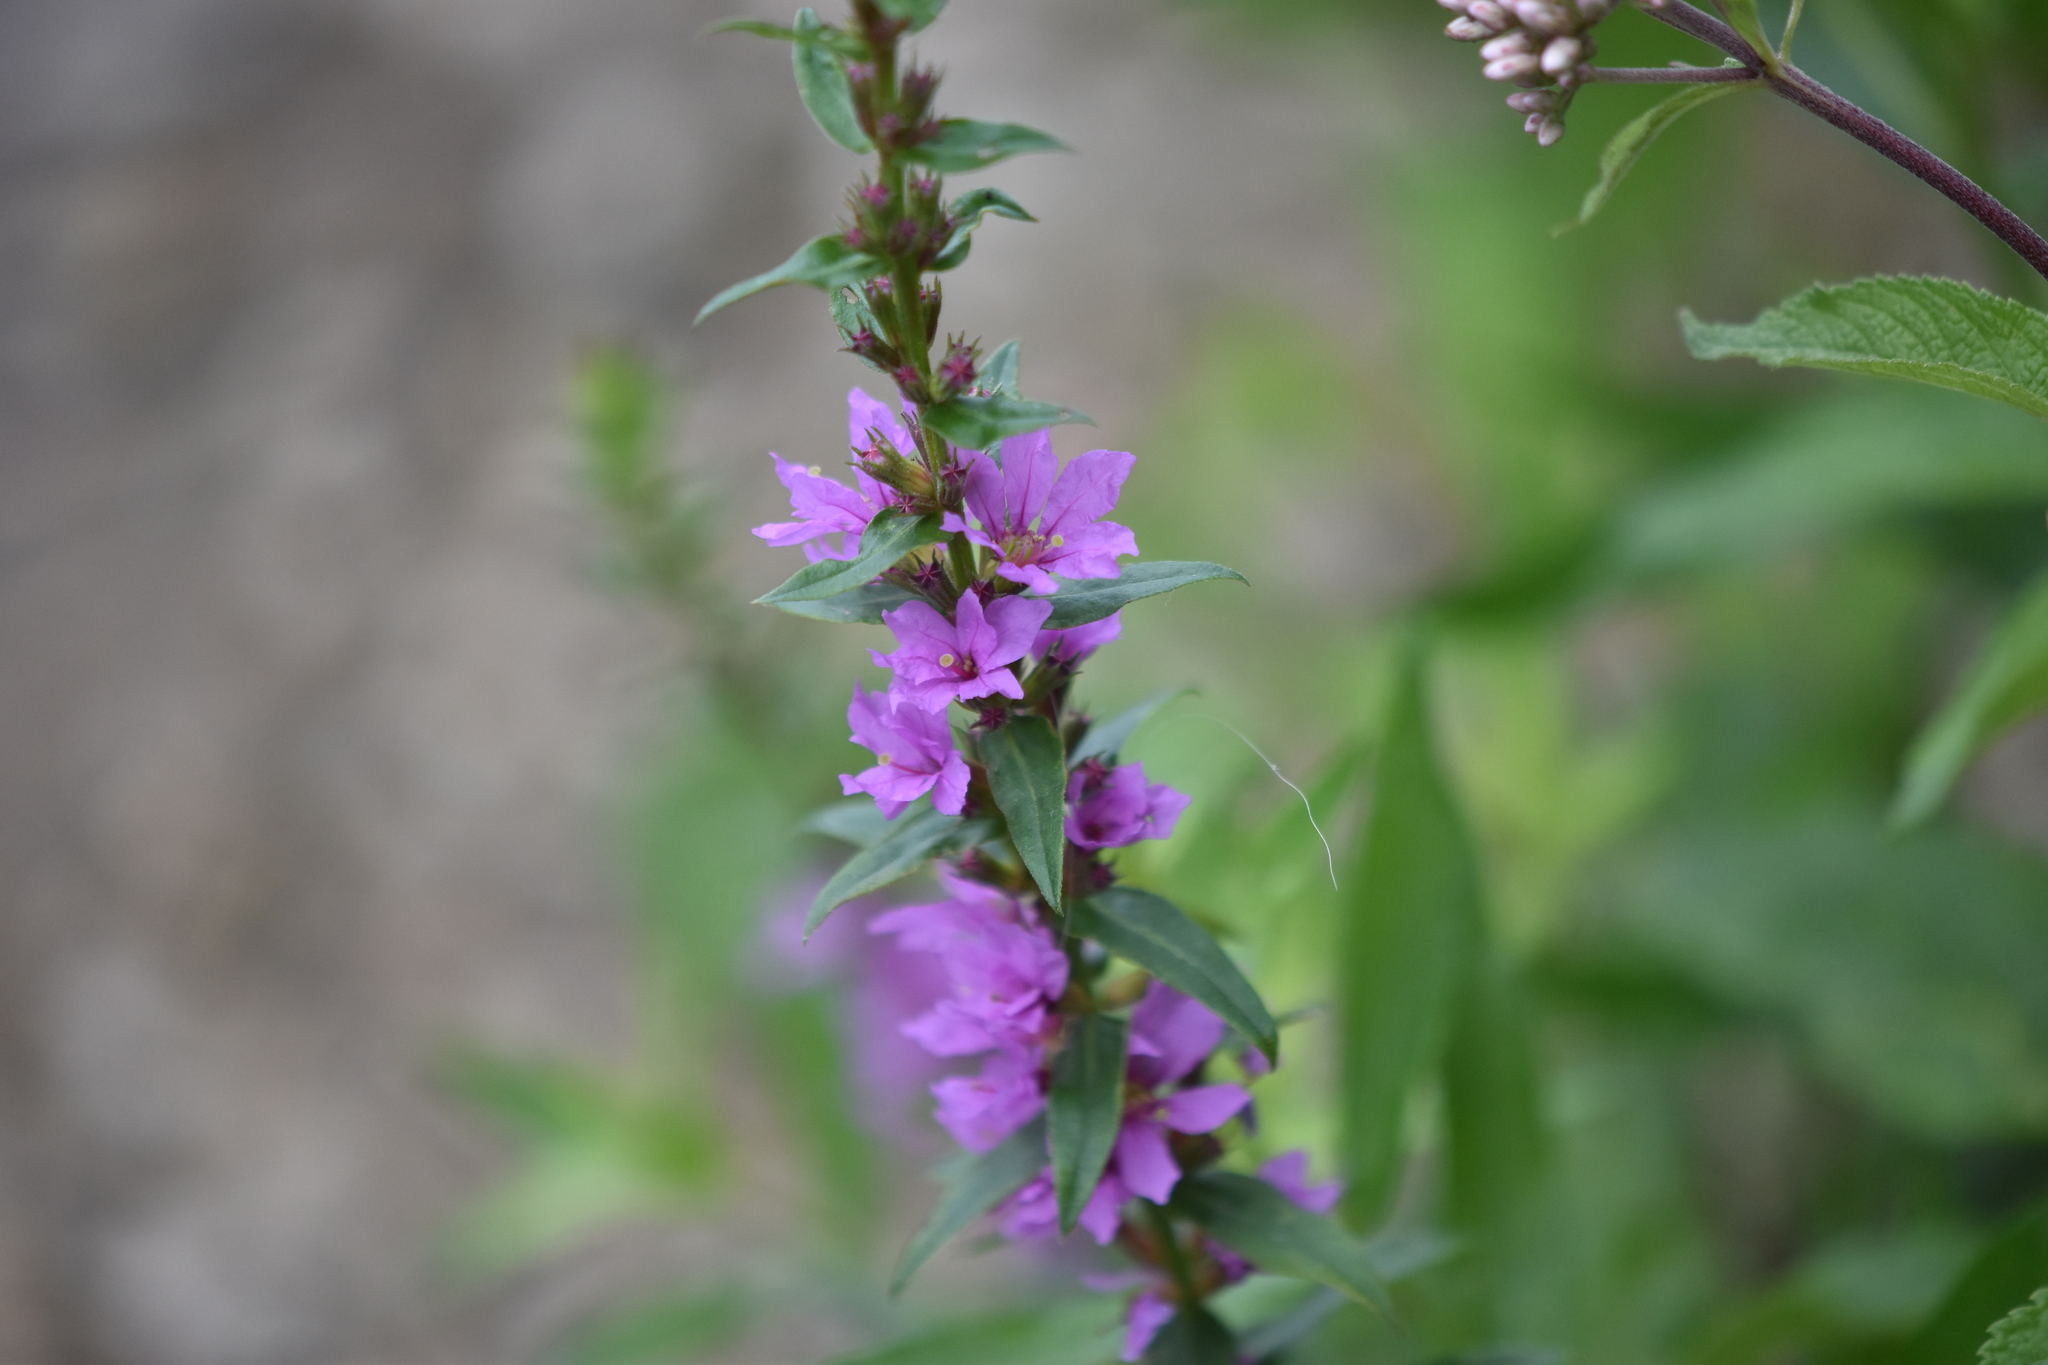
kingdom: Plantae
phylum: Tracheophyta
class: Magnoliopsida
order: Myrtales
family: Lythraceae
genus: Lythrum
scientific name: Lythrum salicaria
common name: Purple loosestrife
